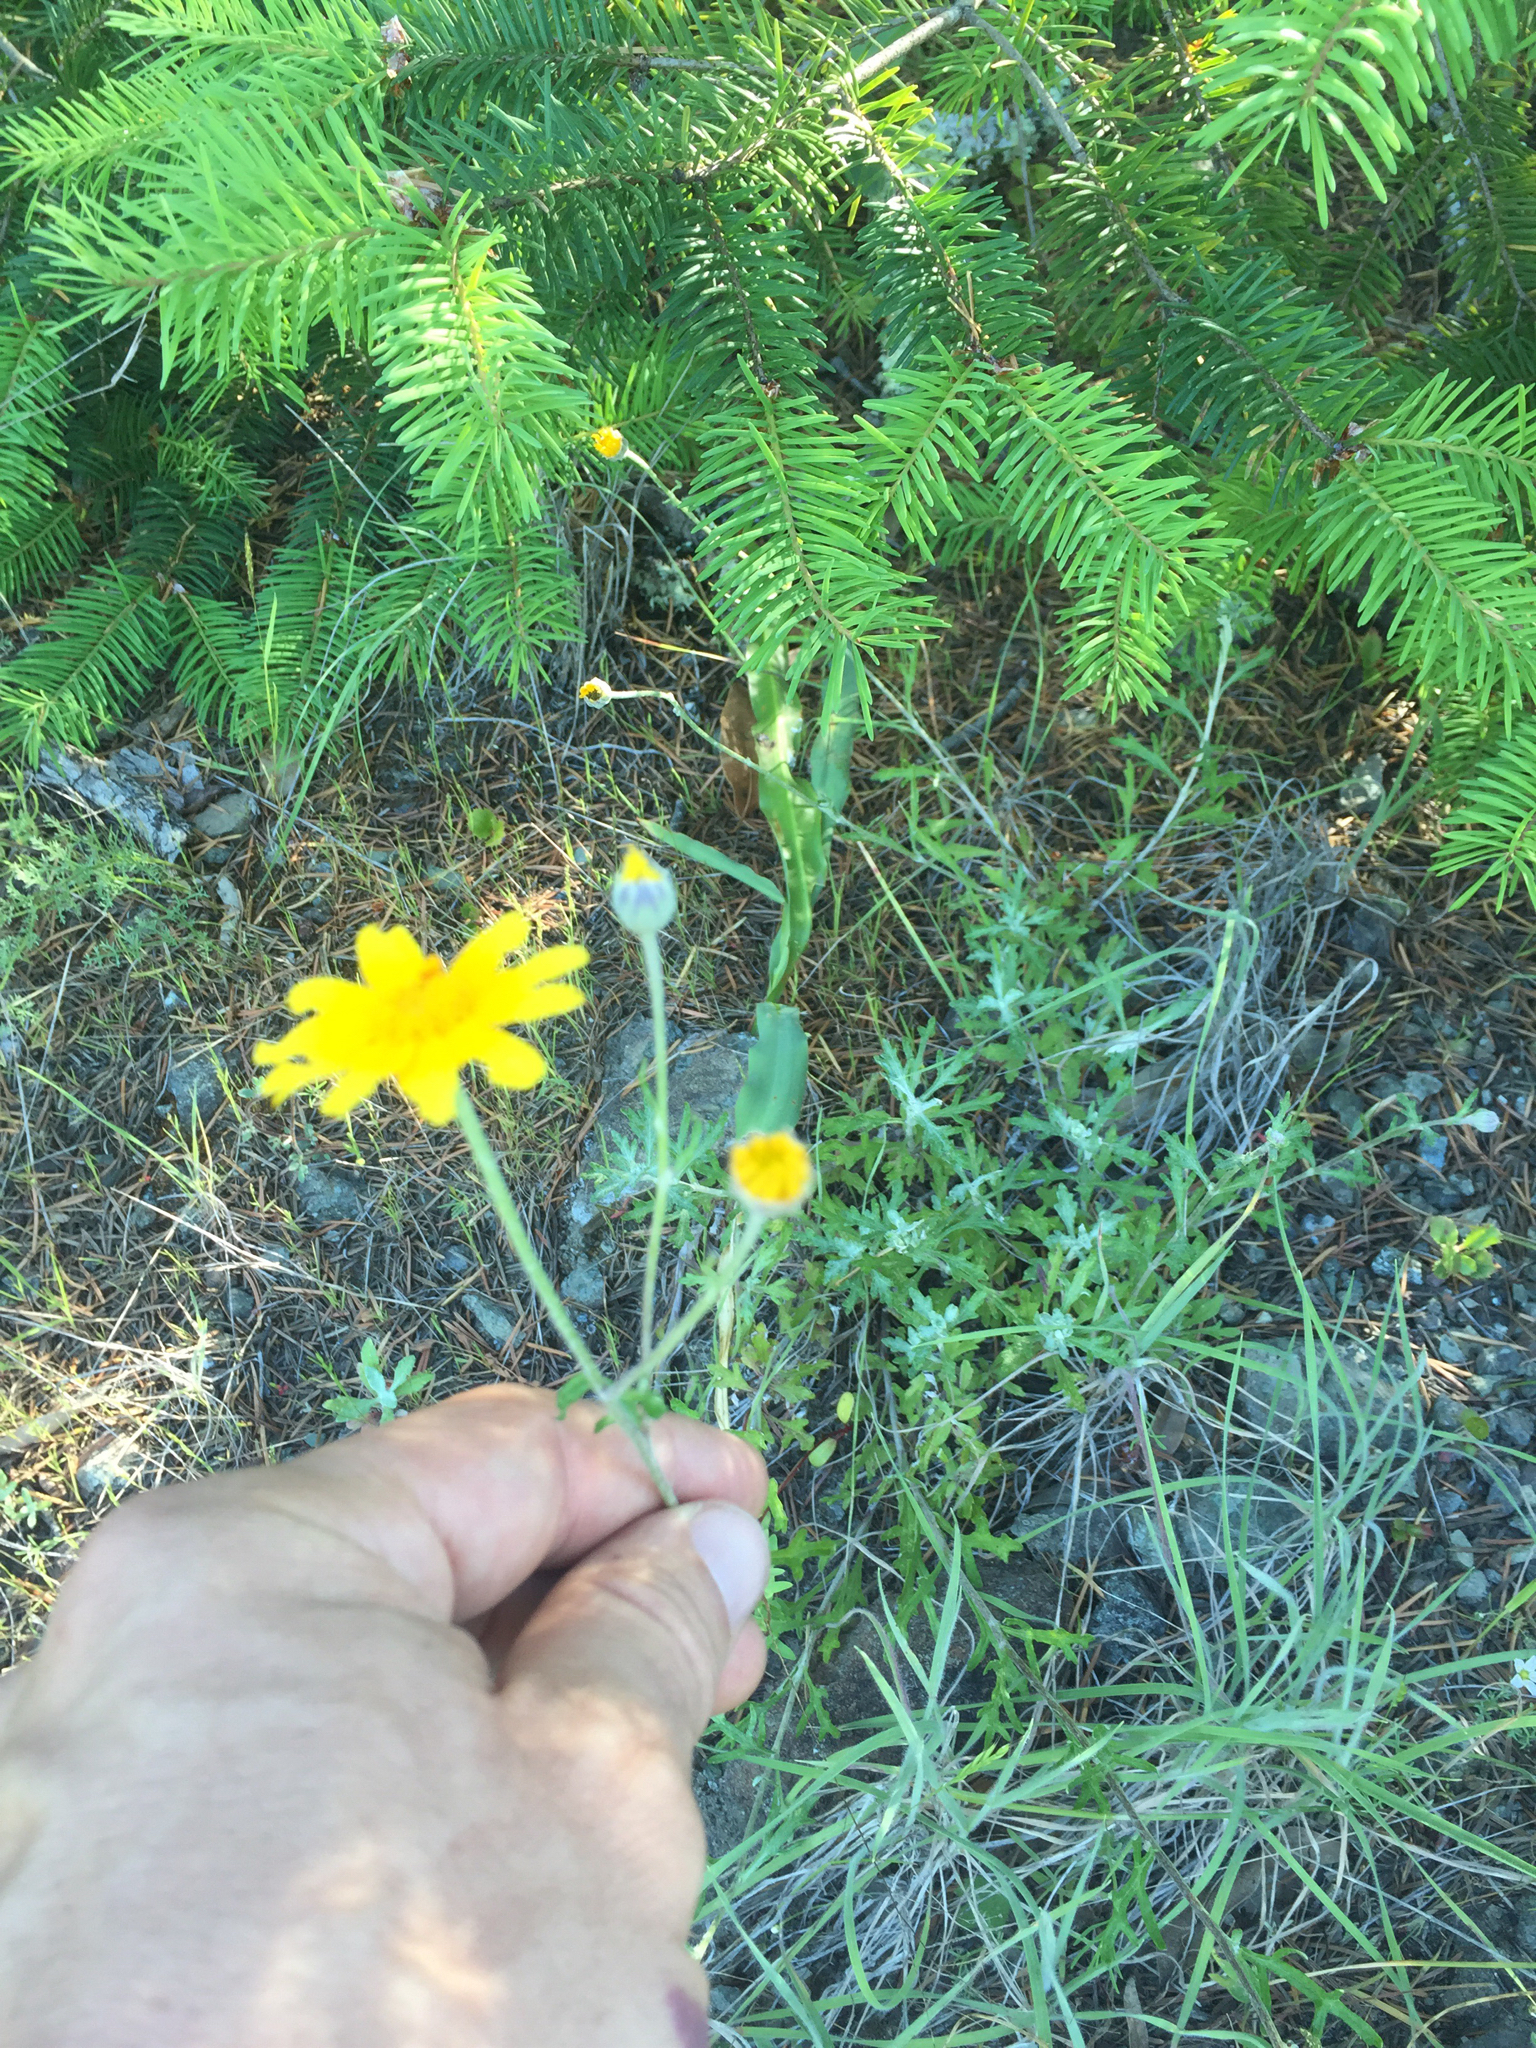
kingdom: Plantae
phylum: Tracheophyta
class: Magnoliopsida
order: Asterales
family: Asteraceae
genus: Eriophyllum
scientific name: Eriophyllum lanatum
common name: Common woolly-sunflower
